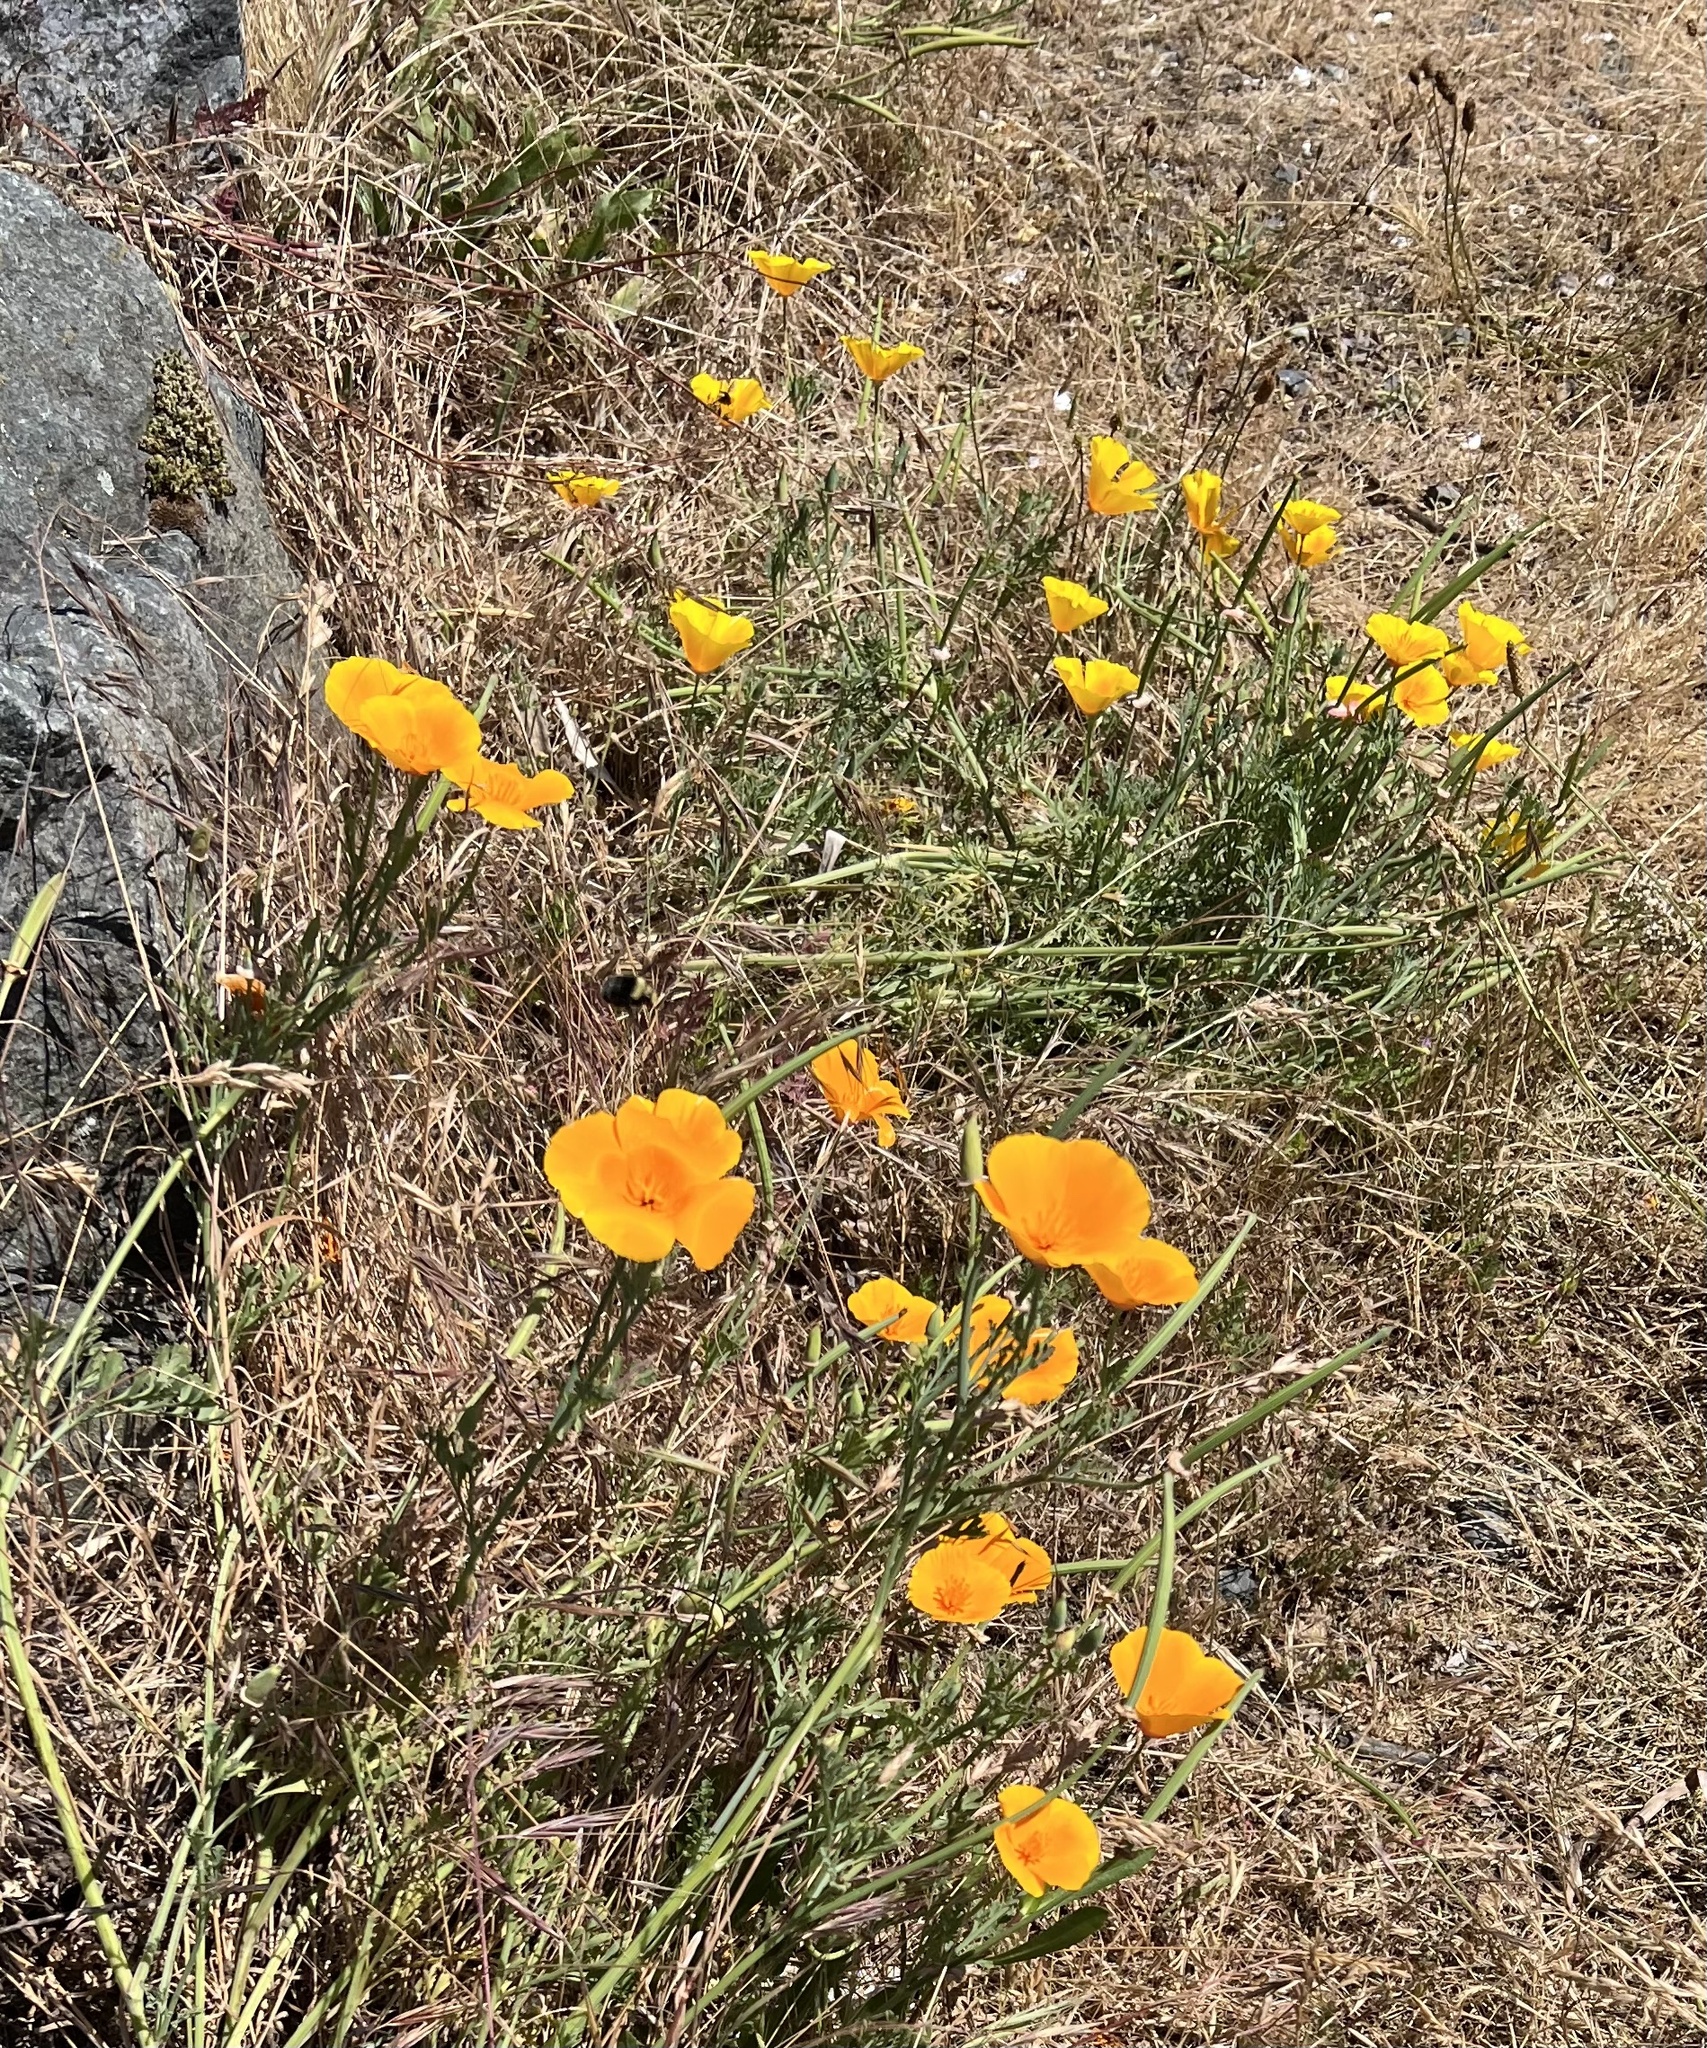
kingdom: Plantae
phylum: Tracheophyta
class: Magnoliopsida
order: Ranunculales
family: Papaveraceae
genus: Eschscholzia
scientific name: Eschscholzia californica
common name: California poppy
